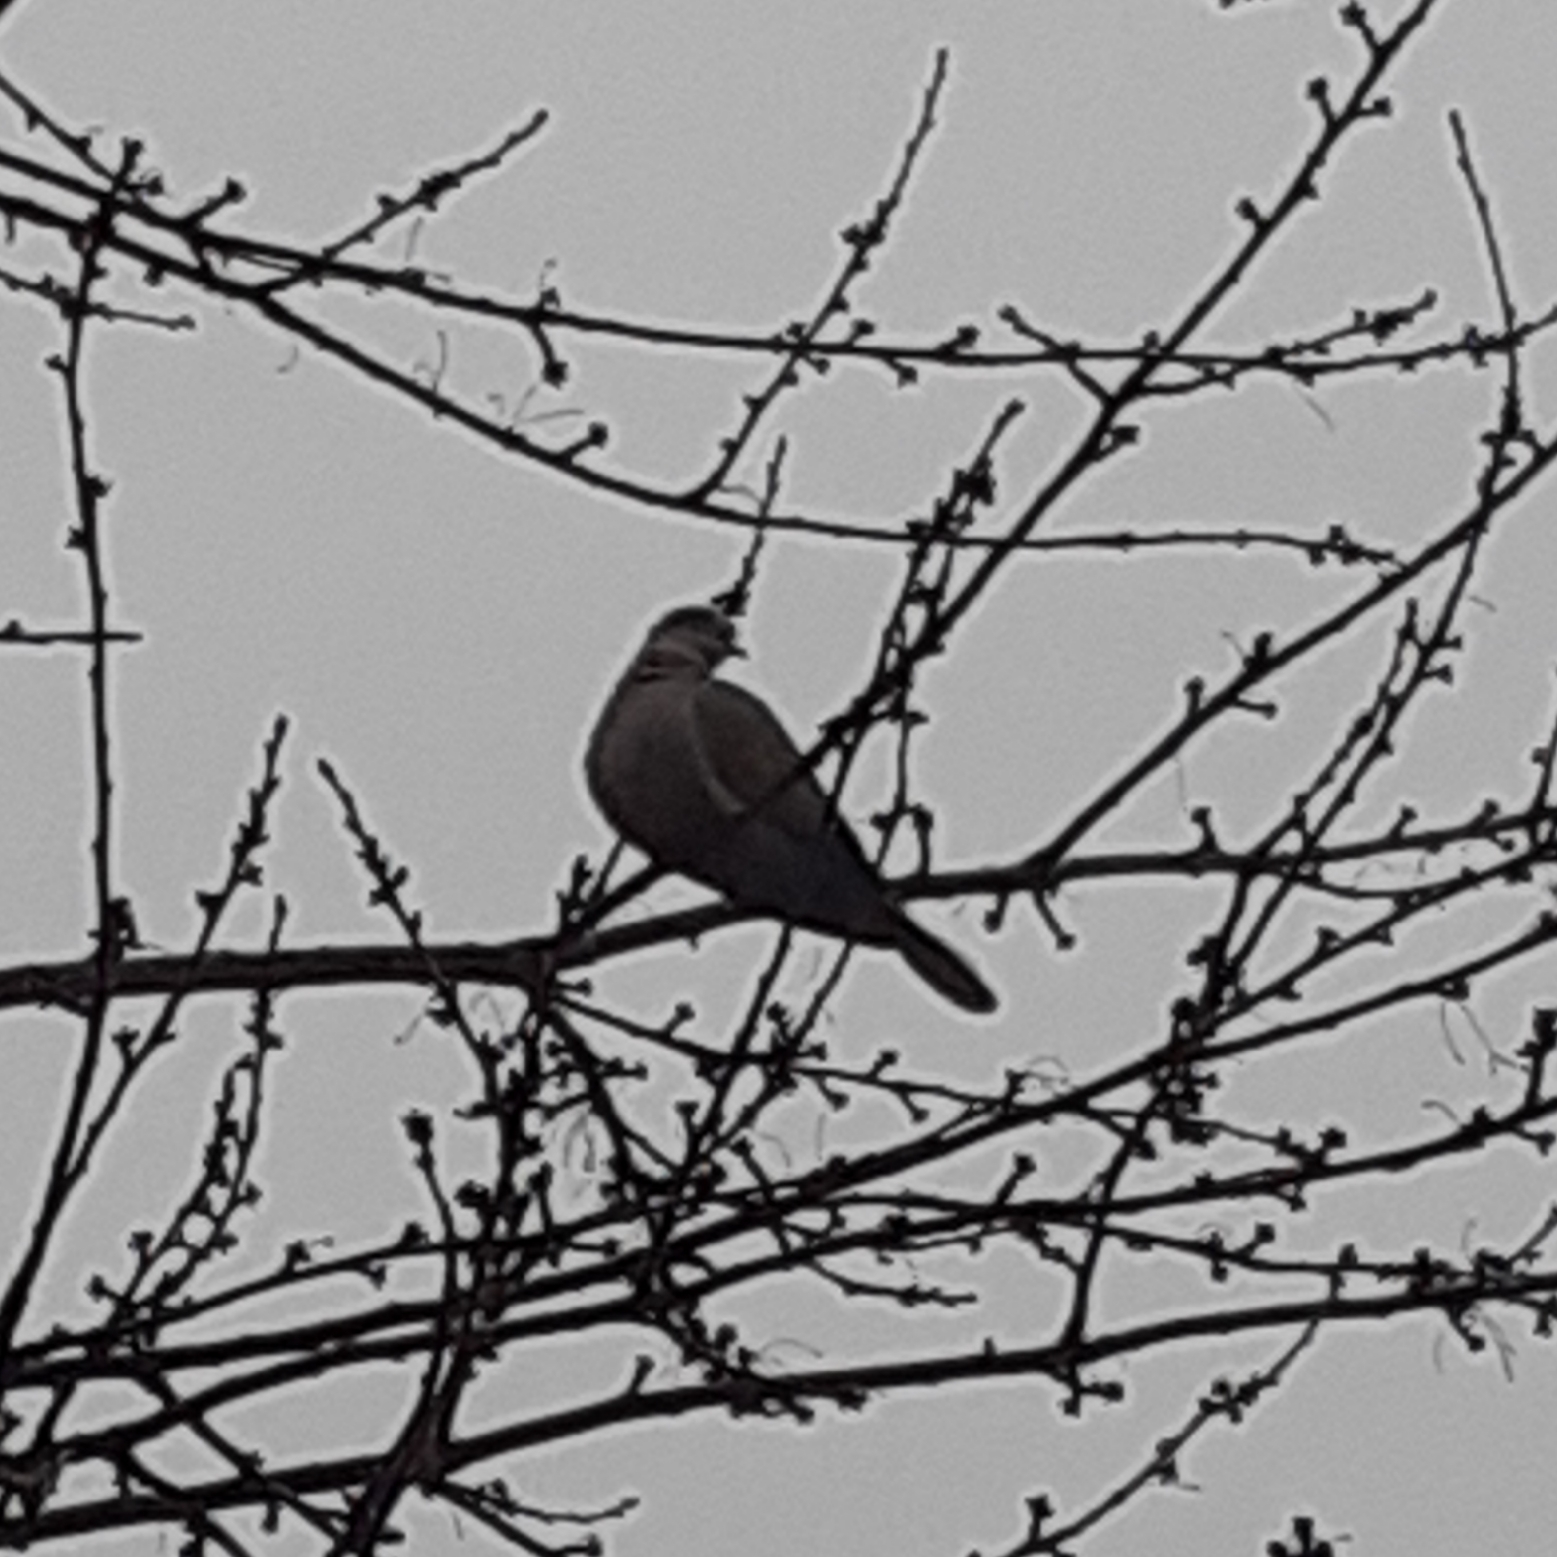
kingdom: Animalia
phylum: Chordata
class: Aves
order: Columbiformes
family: Columbidae
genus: Streptopelia
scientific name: Streptopelia decaocto
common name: Eurasian collared dove
